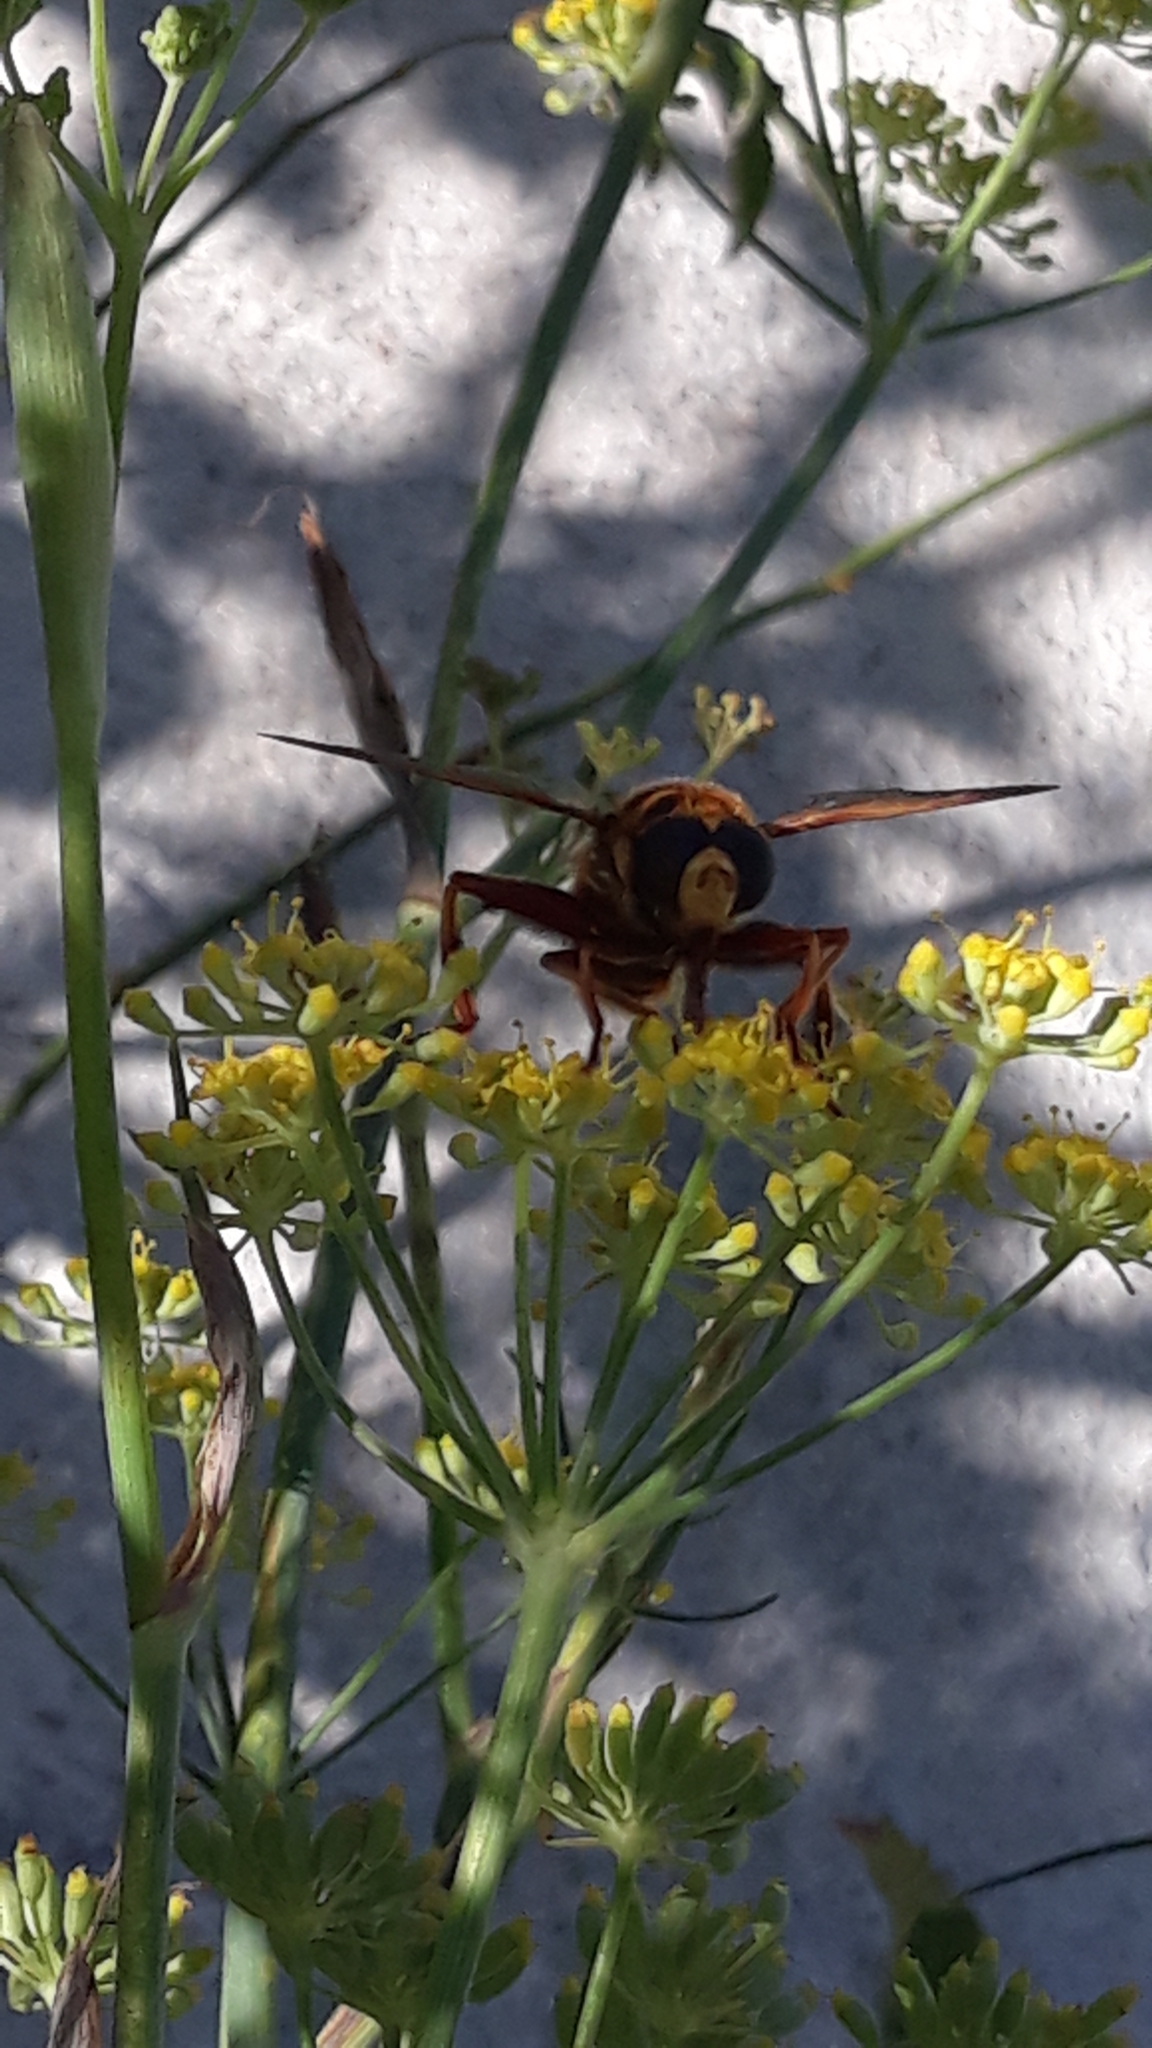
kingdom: Animalia
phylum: Arthropoda
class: Insecta
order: Diptera
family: Syrphidae
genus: Milesia
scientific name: Milesia crabroniformis
